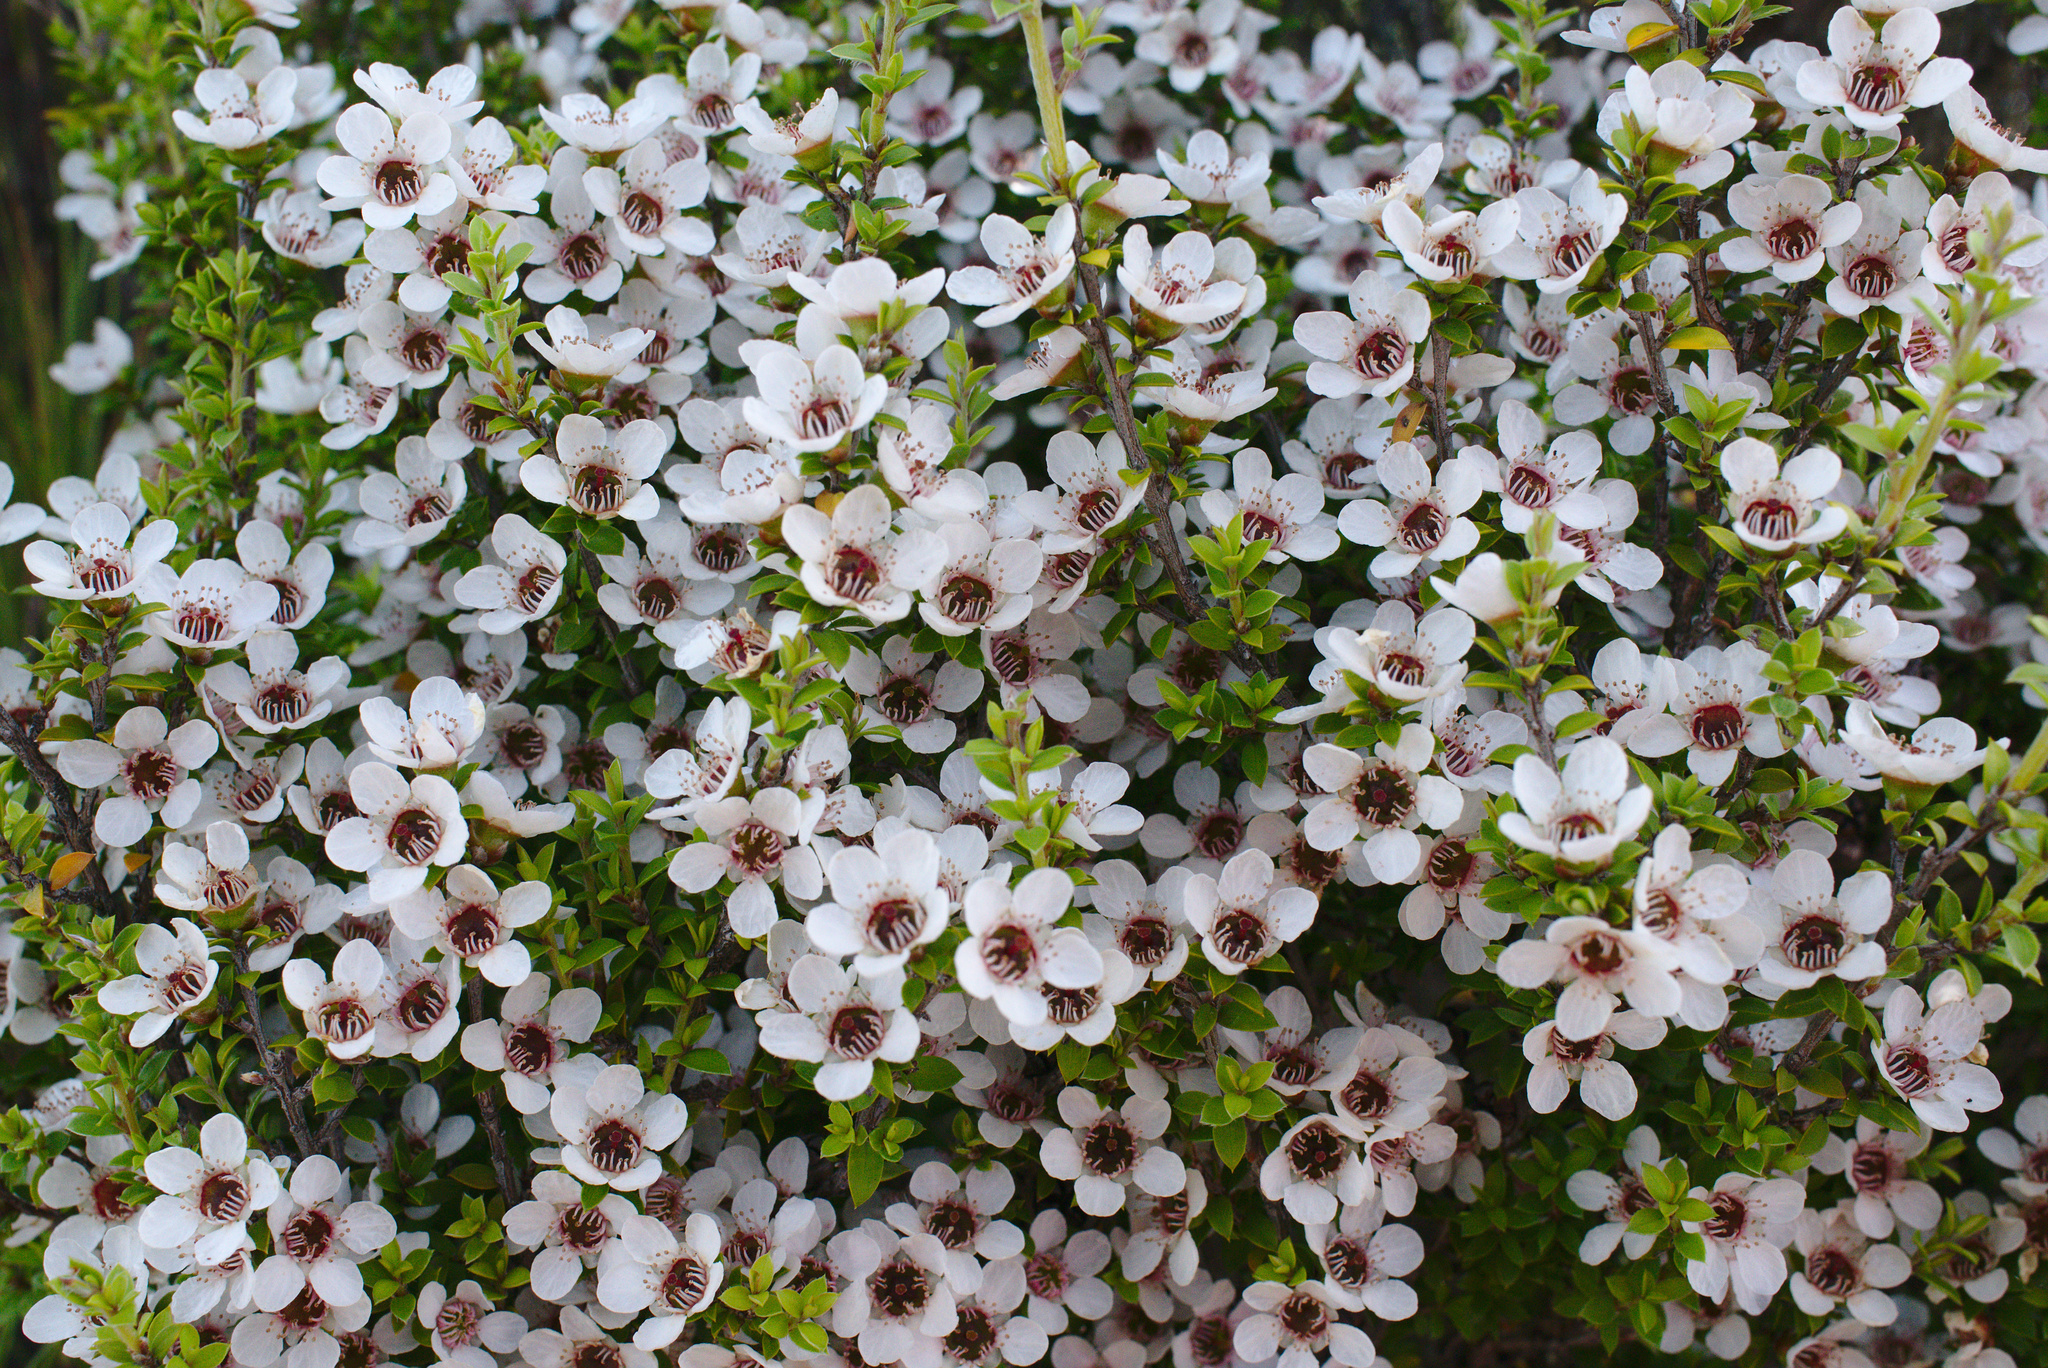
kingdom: Plantae
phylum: Tracheophyta
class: Magnoliopsida
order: Myrtales
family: Myrtaceae
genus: Leptospermum
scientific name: Leptospermum scoparium
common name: Broom tea-tree
